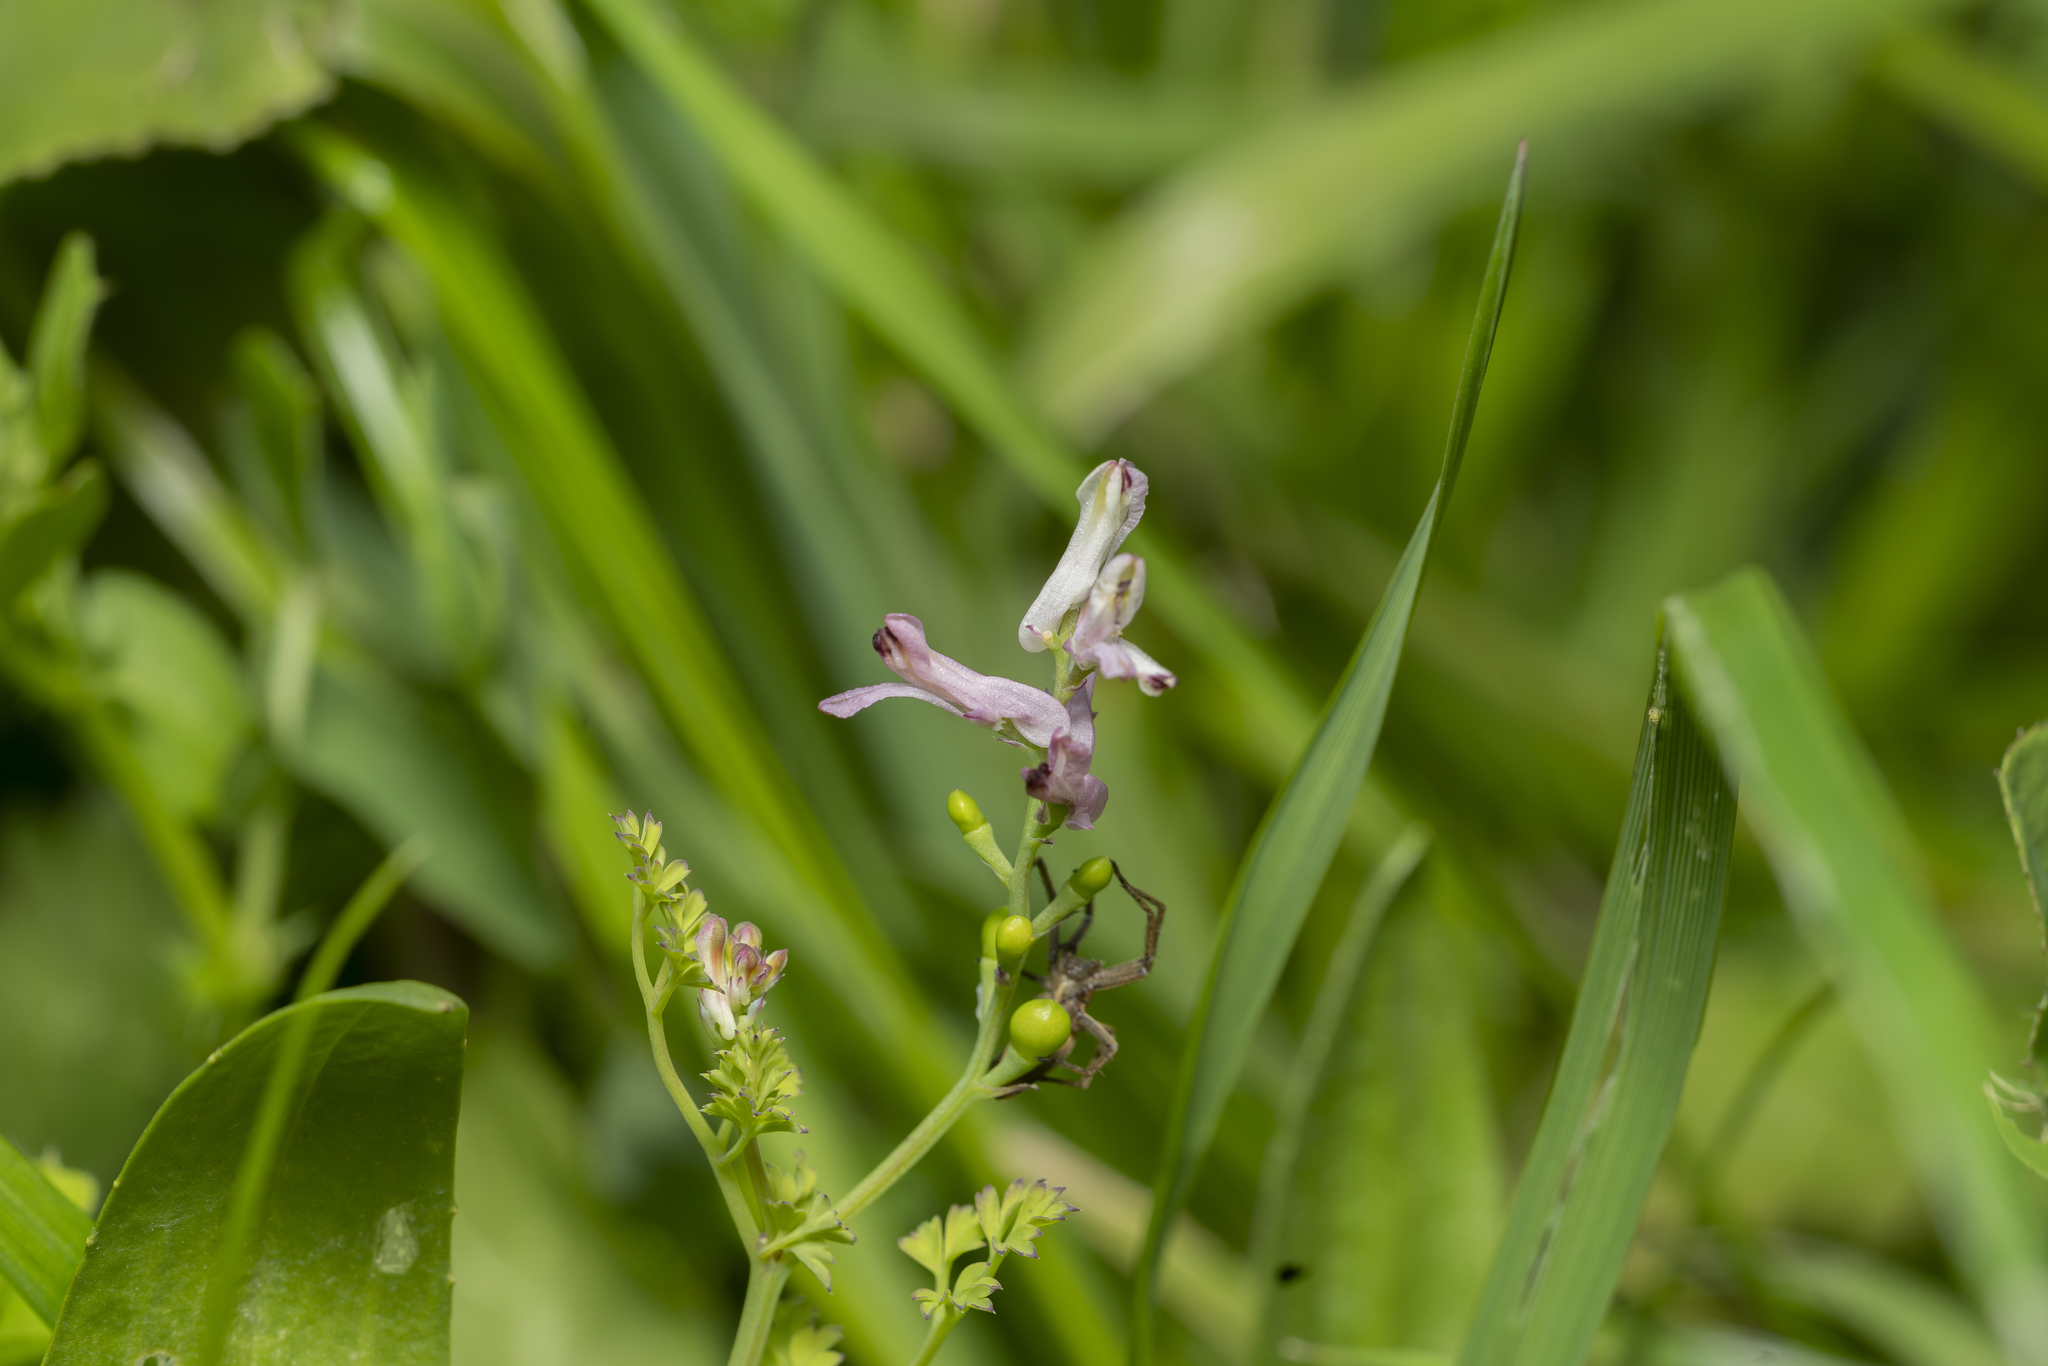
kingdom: Plantae
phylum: Tracheophyta
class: Magnoliopsida
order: Ranunculales
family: Papaveraceae
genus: Fumaria
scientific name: Fumaria judaica
